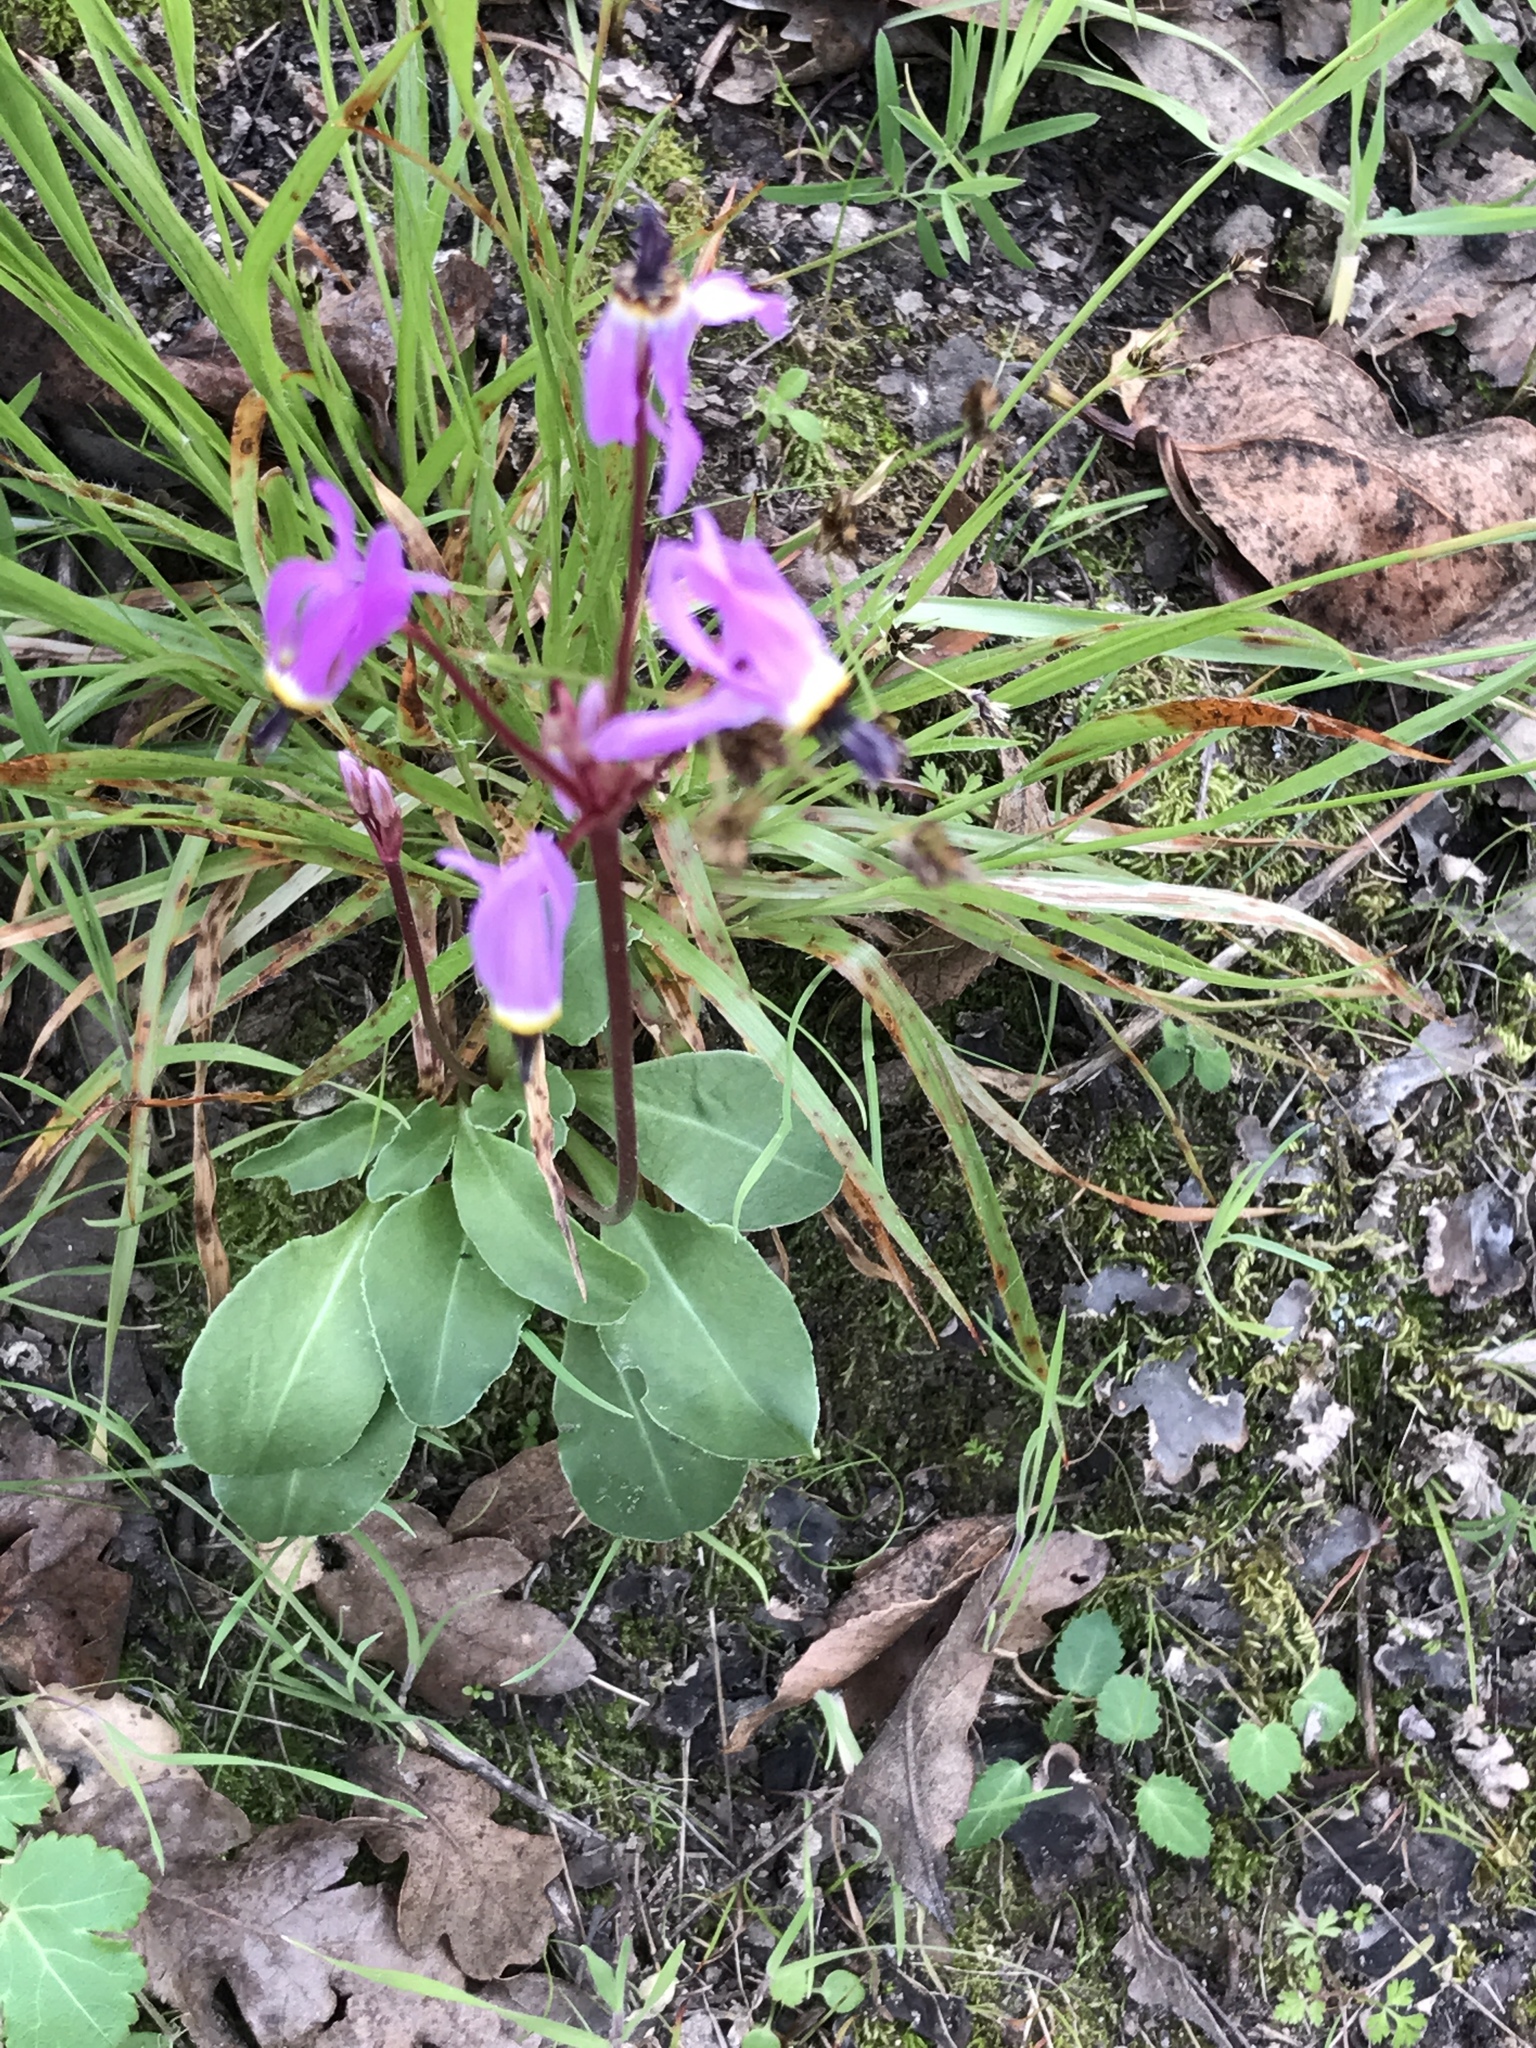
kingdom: Plantae
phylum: Tracheophyta
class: Magnoliopsida
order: Ericales
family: Primulaceae
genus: Dodecatheon
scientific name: Dodecatheon hendersonii
